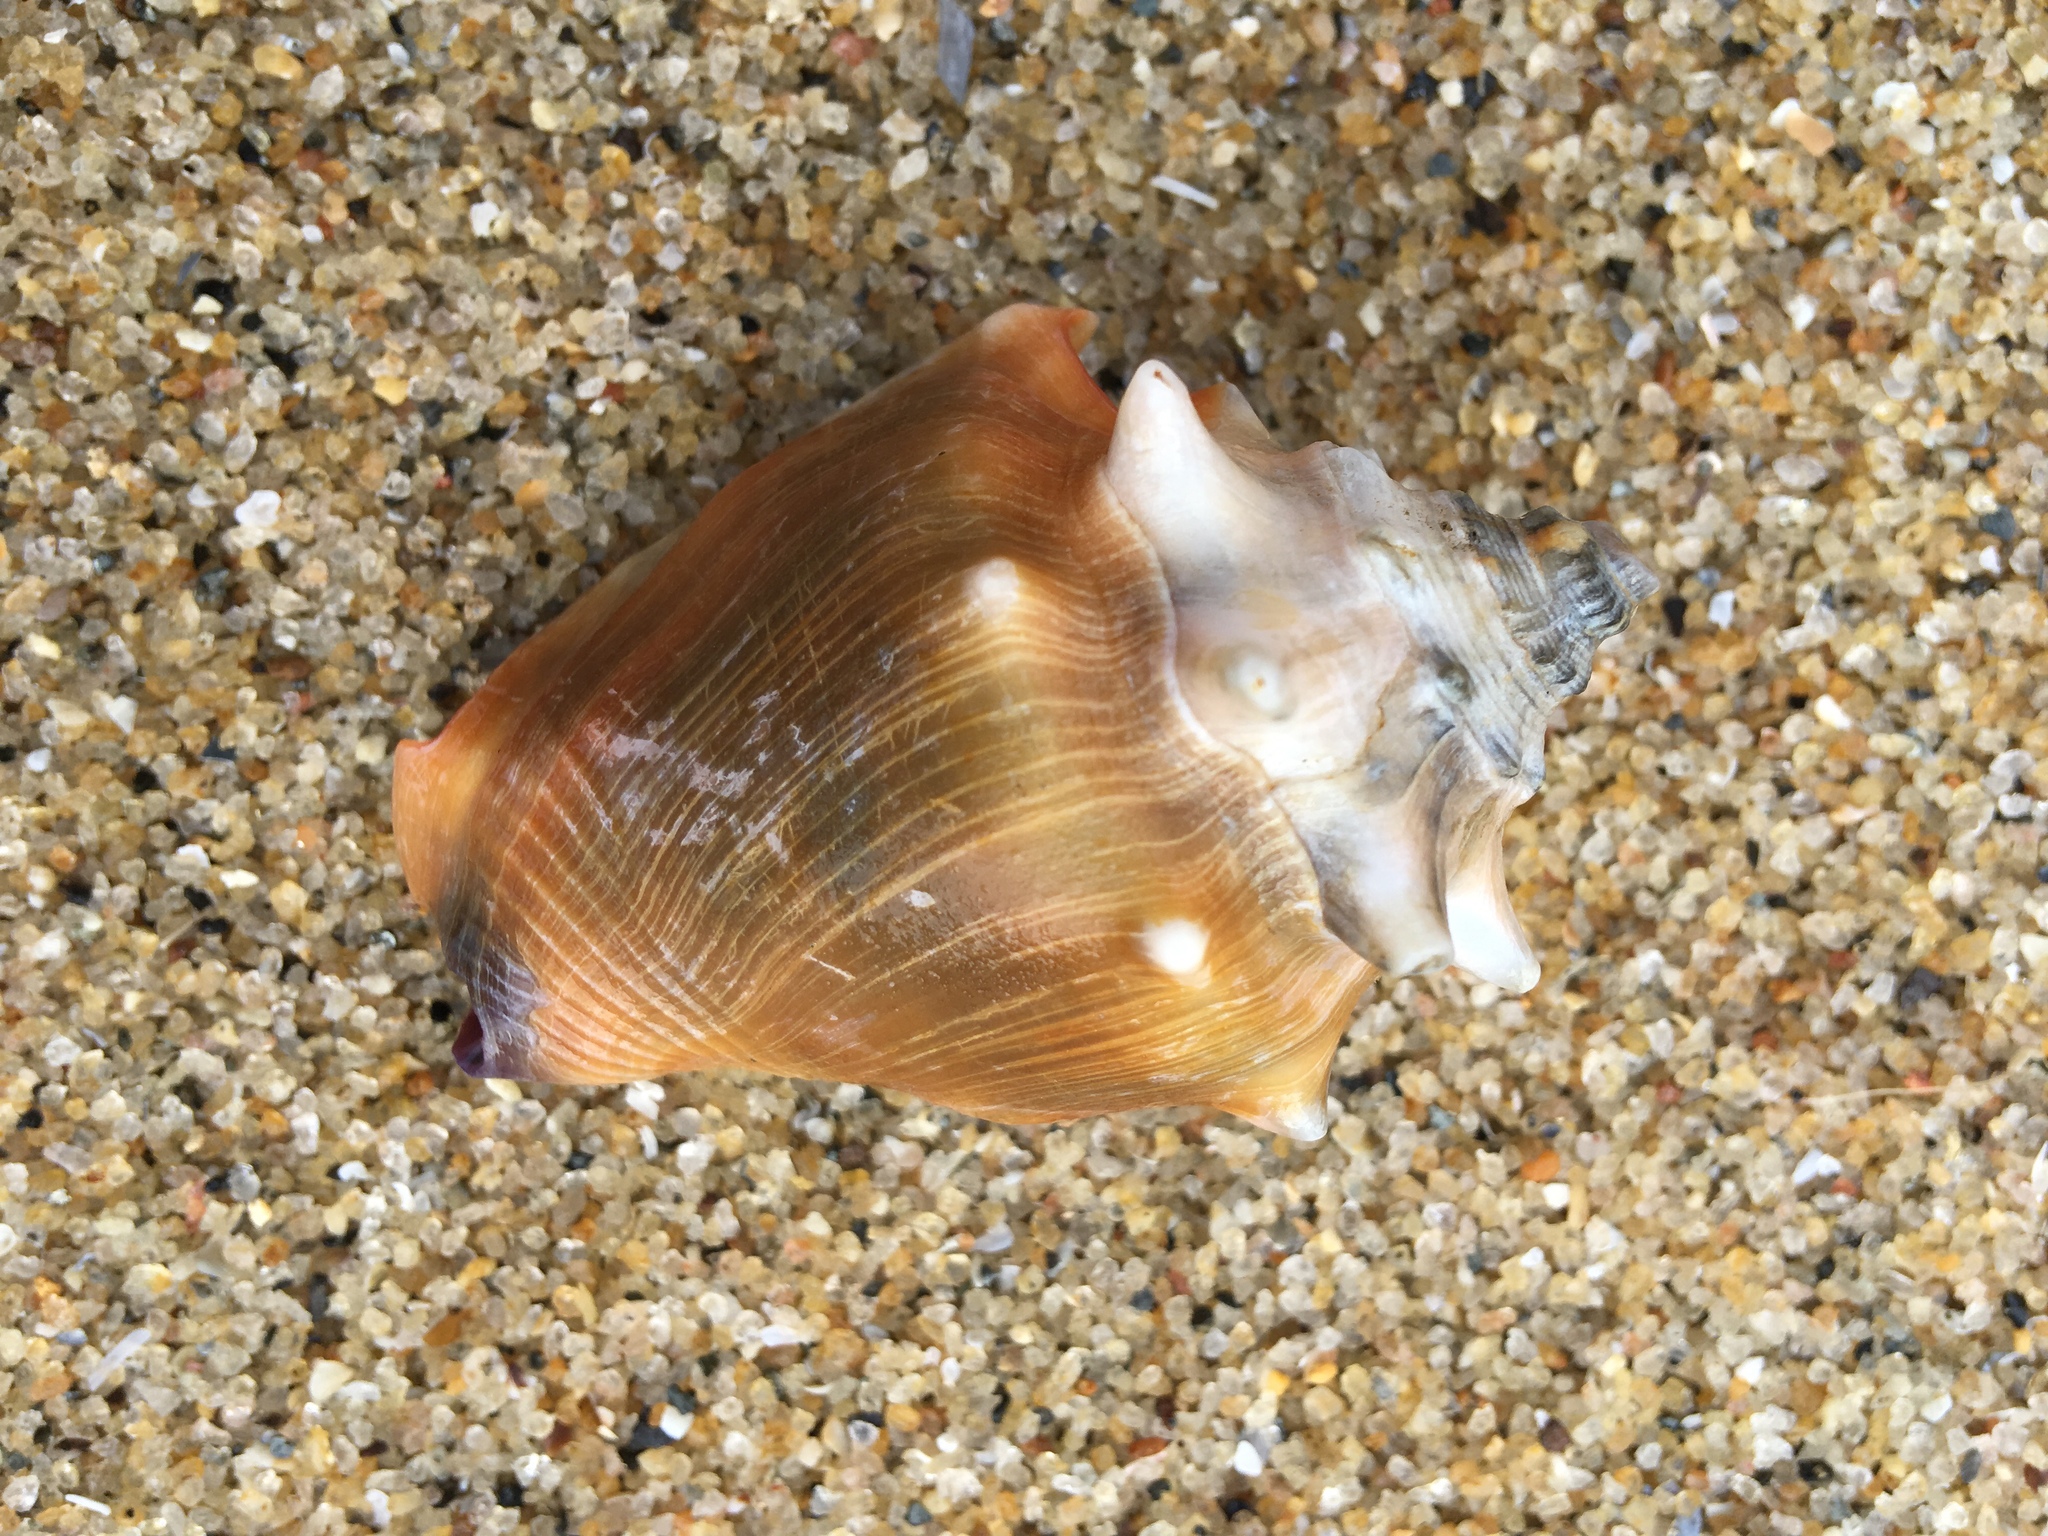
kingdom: Animalia
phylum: Mollusca
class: Gastropoda
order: Littorinimorpha
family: Strombidae
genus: Strombus
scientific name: Strombus pugilis
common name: West indian fighting conch
